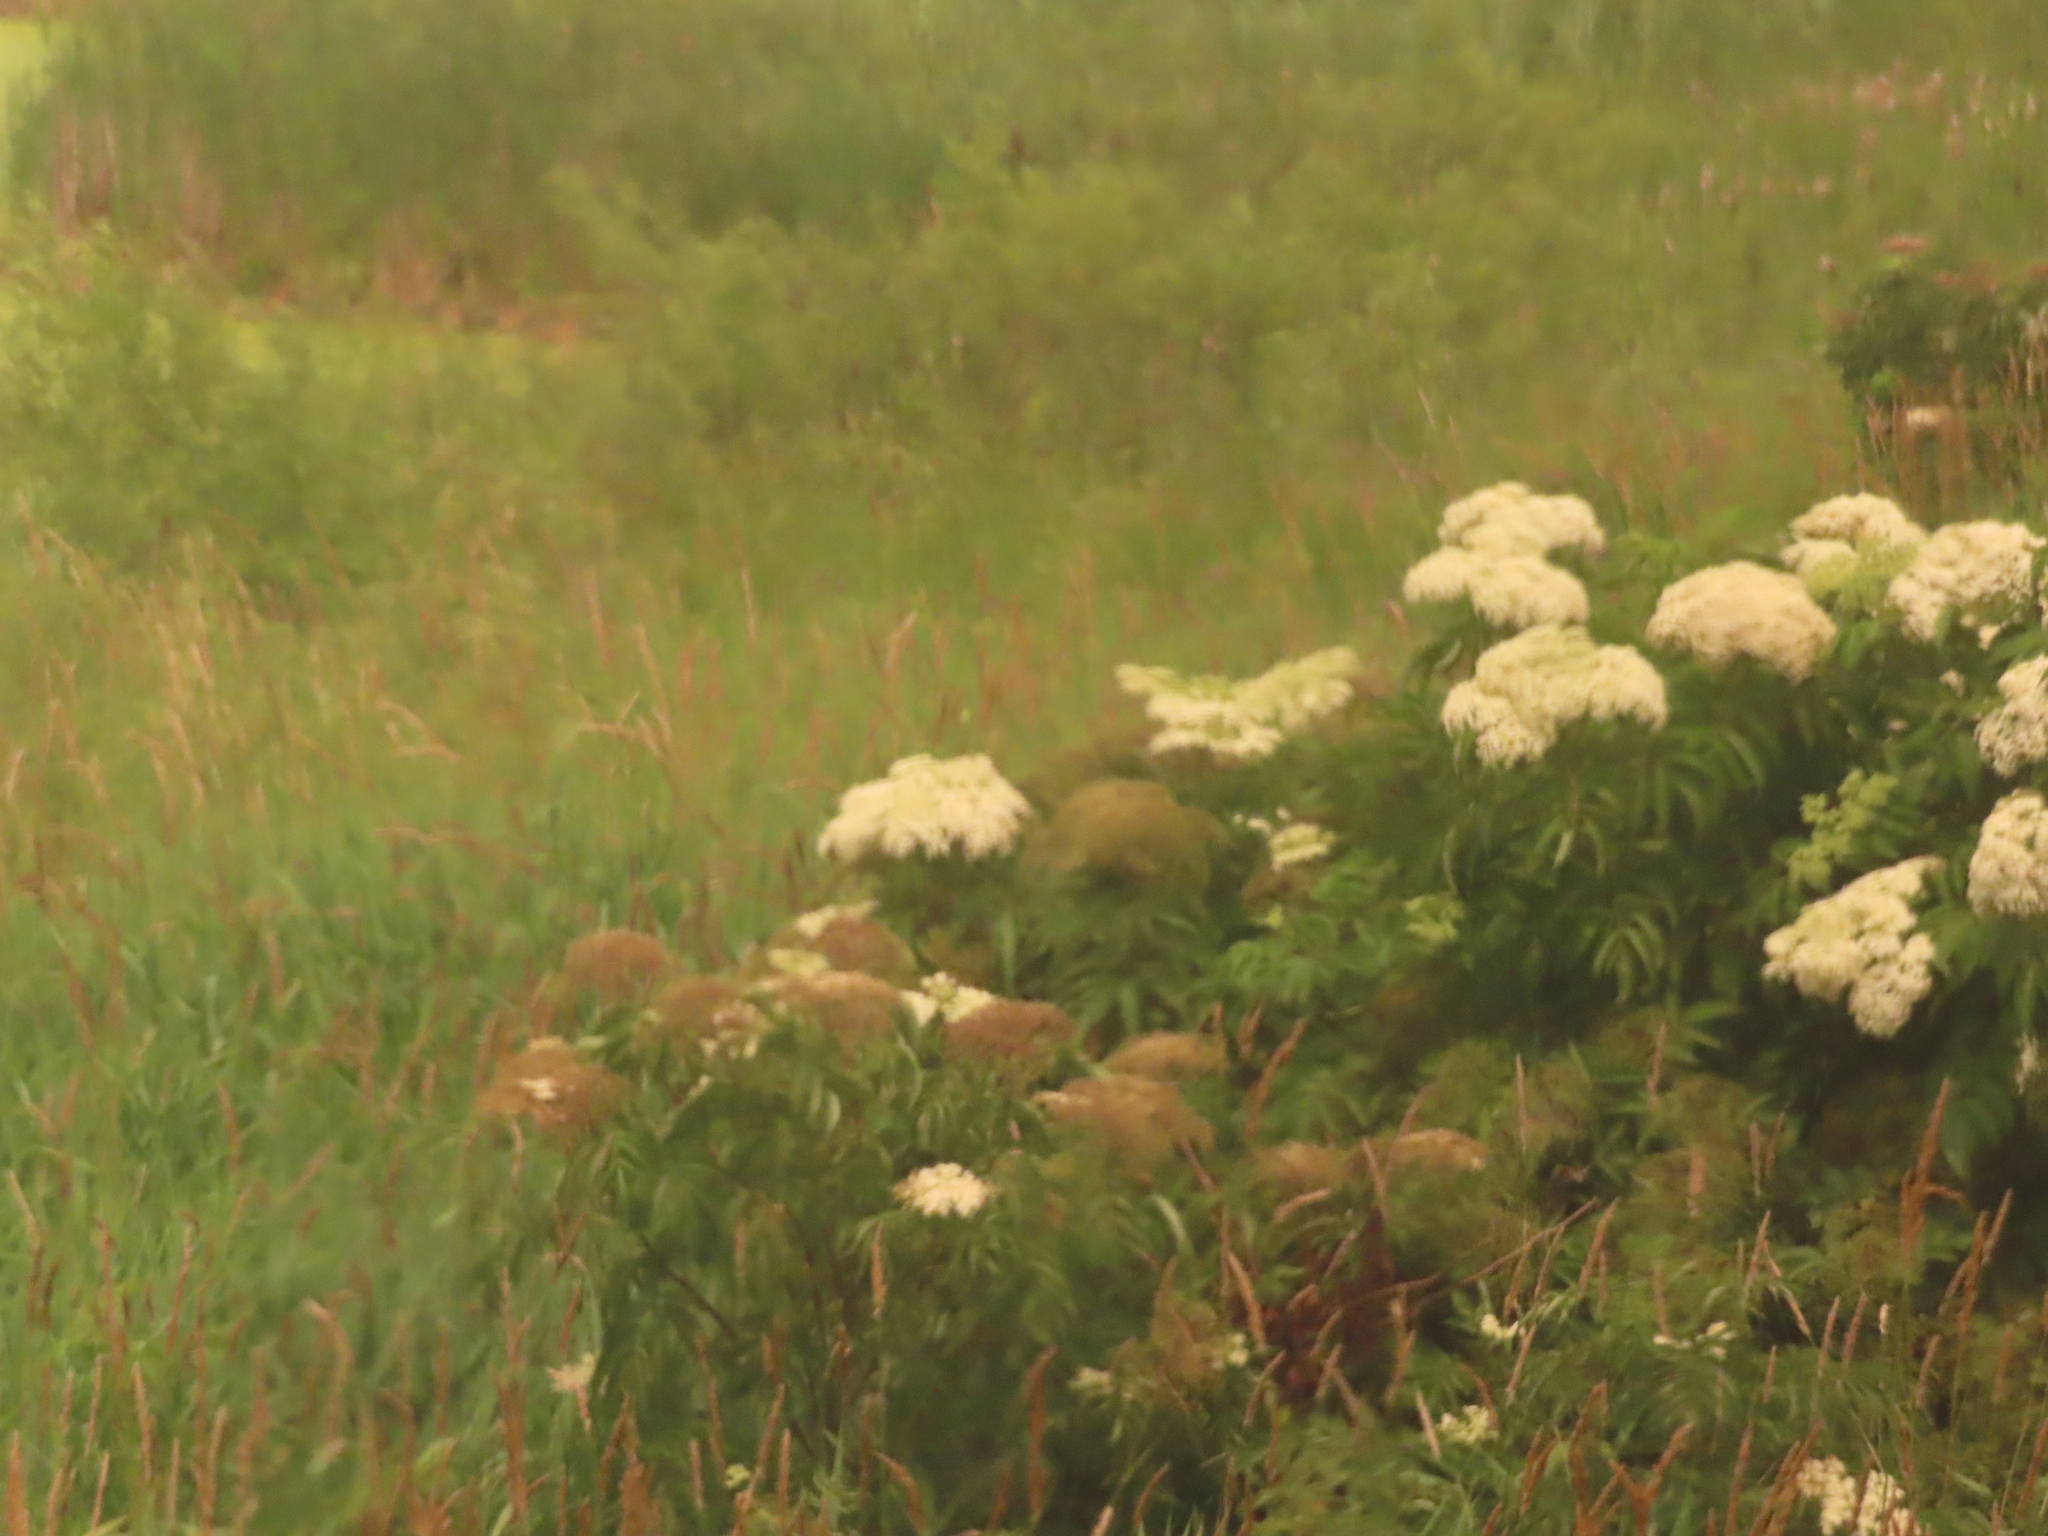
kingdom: Plantae
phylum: Tracheophyta
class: Magnoliopsida
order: Dipsacales
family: Viburnaceae
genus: Sambucus
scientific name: Sambucus canadensis
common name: American elder
